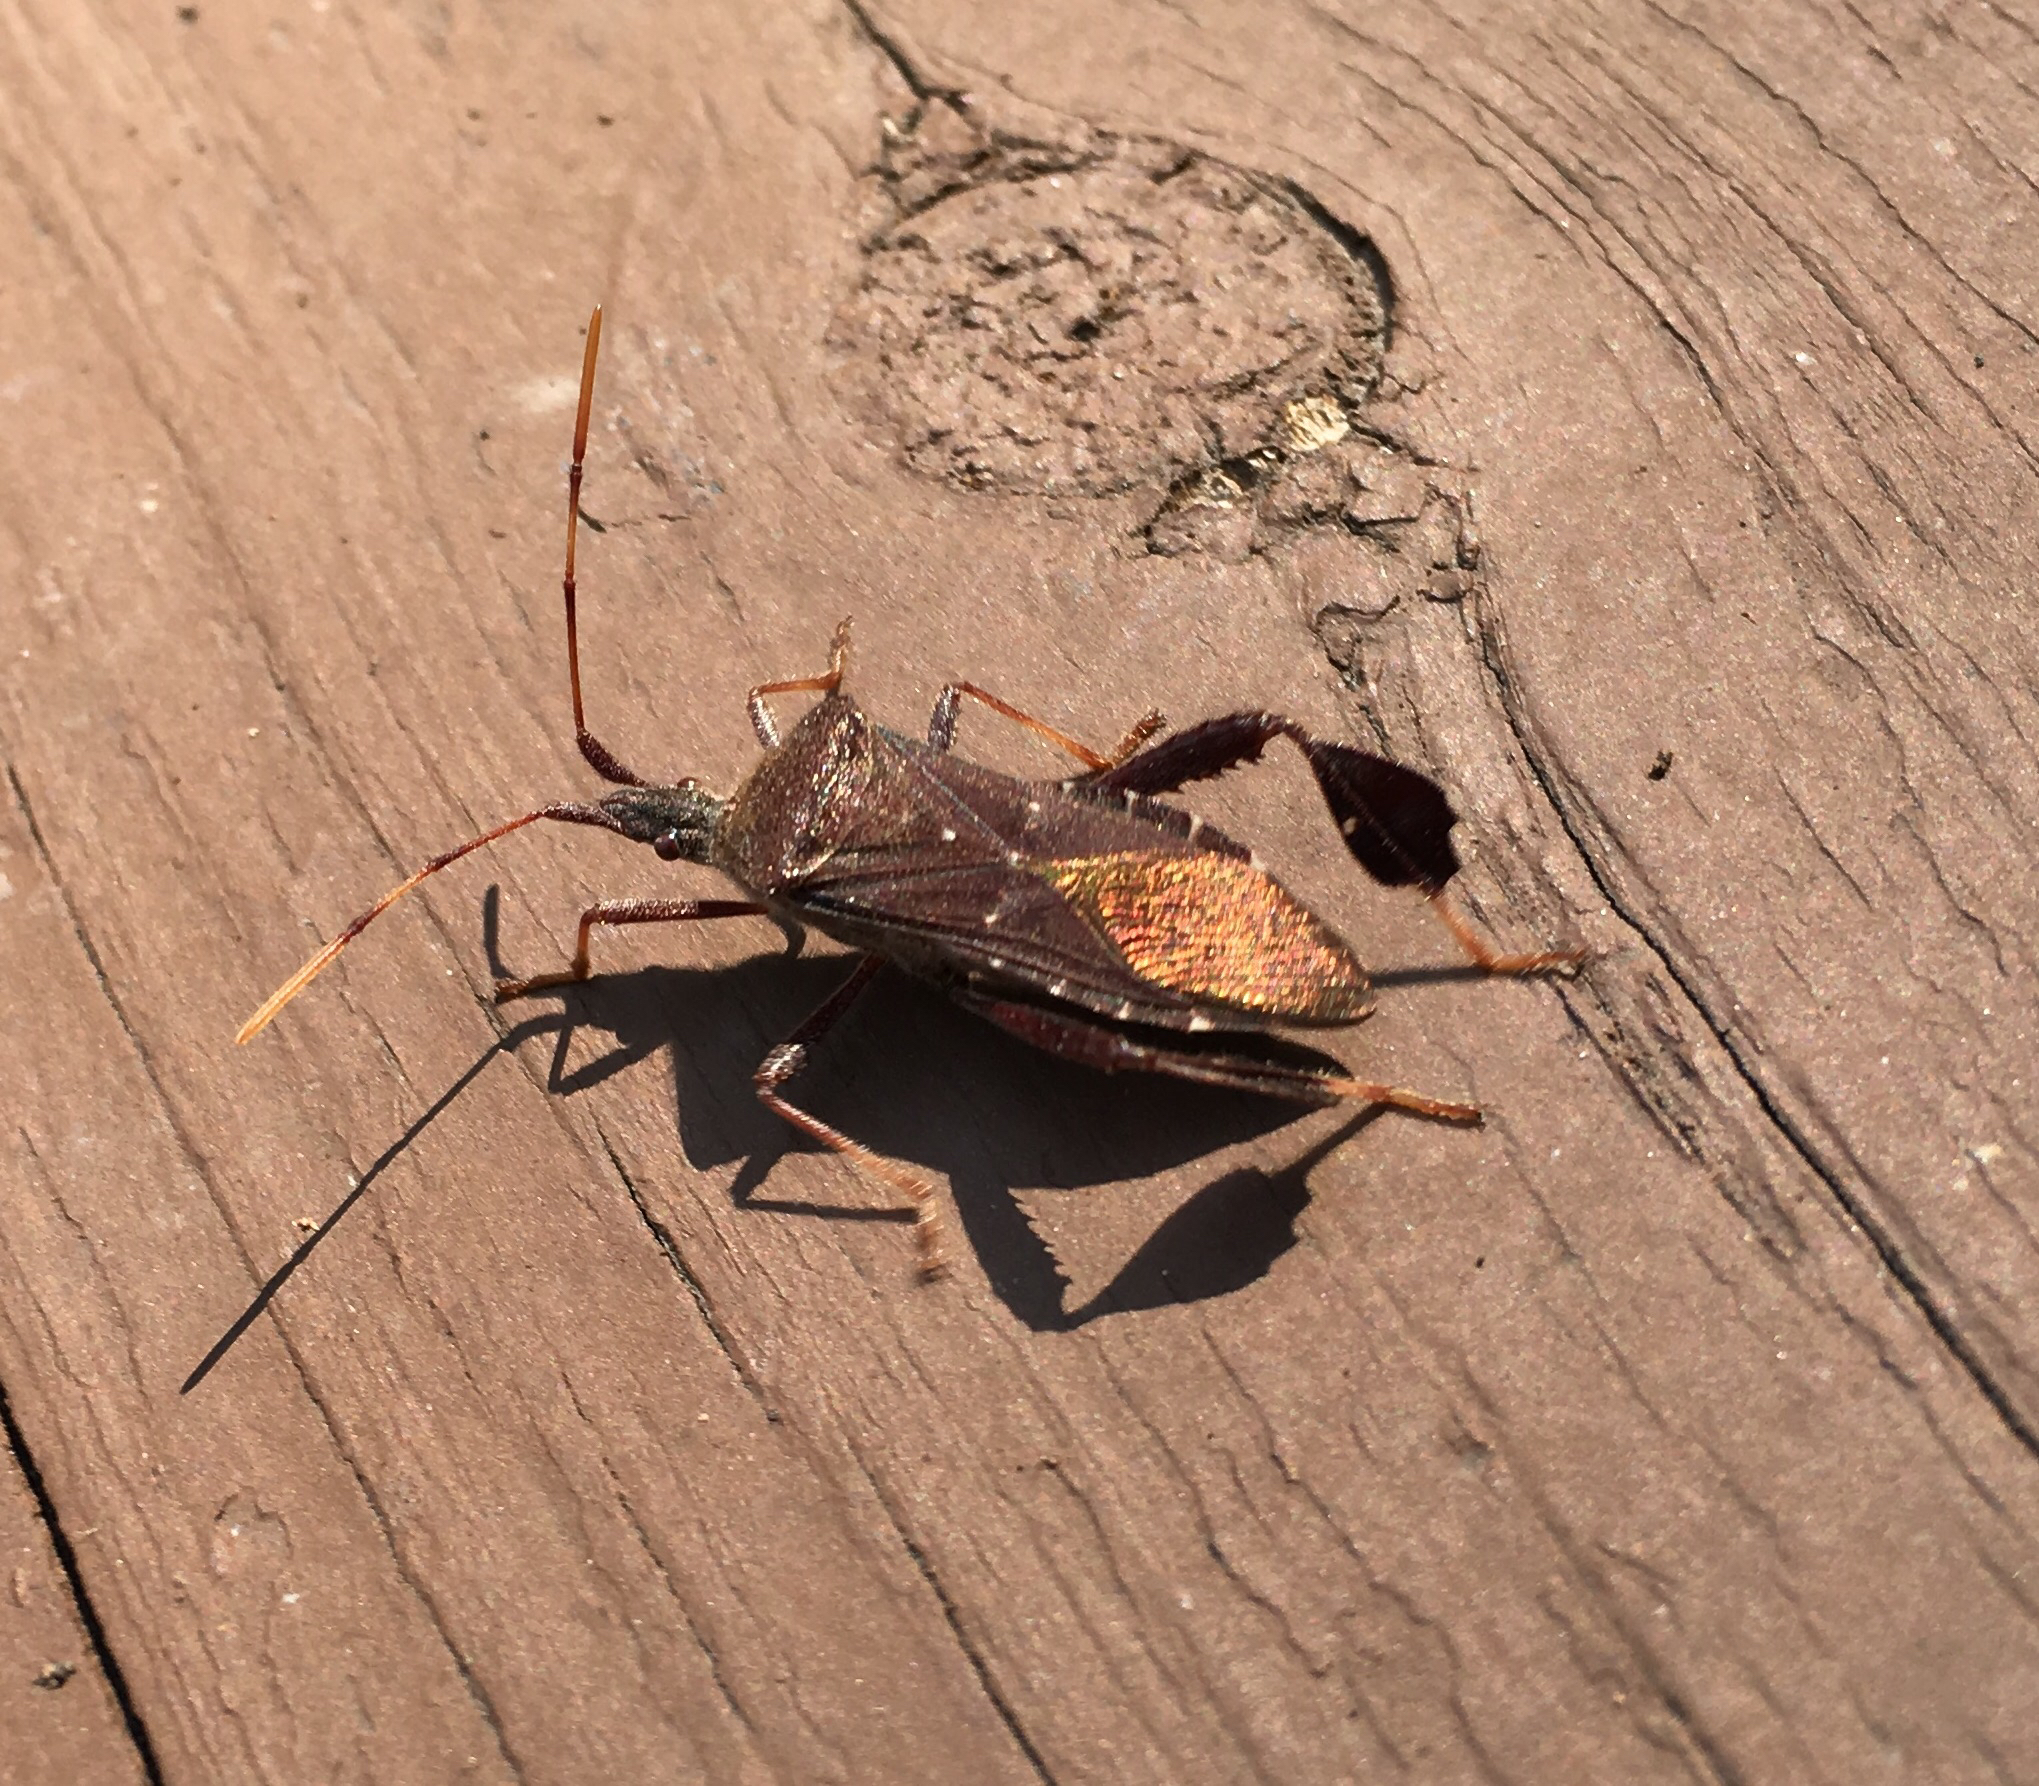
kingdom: Animalia
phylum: Arthropoda
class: Insecta
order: Hemiptera
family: Coreidae
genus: Leptoglossus
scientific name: Leptoglossus oppositus
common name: Northern leaf-footed bug
